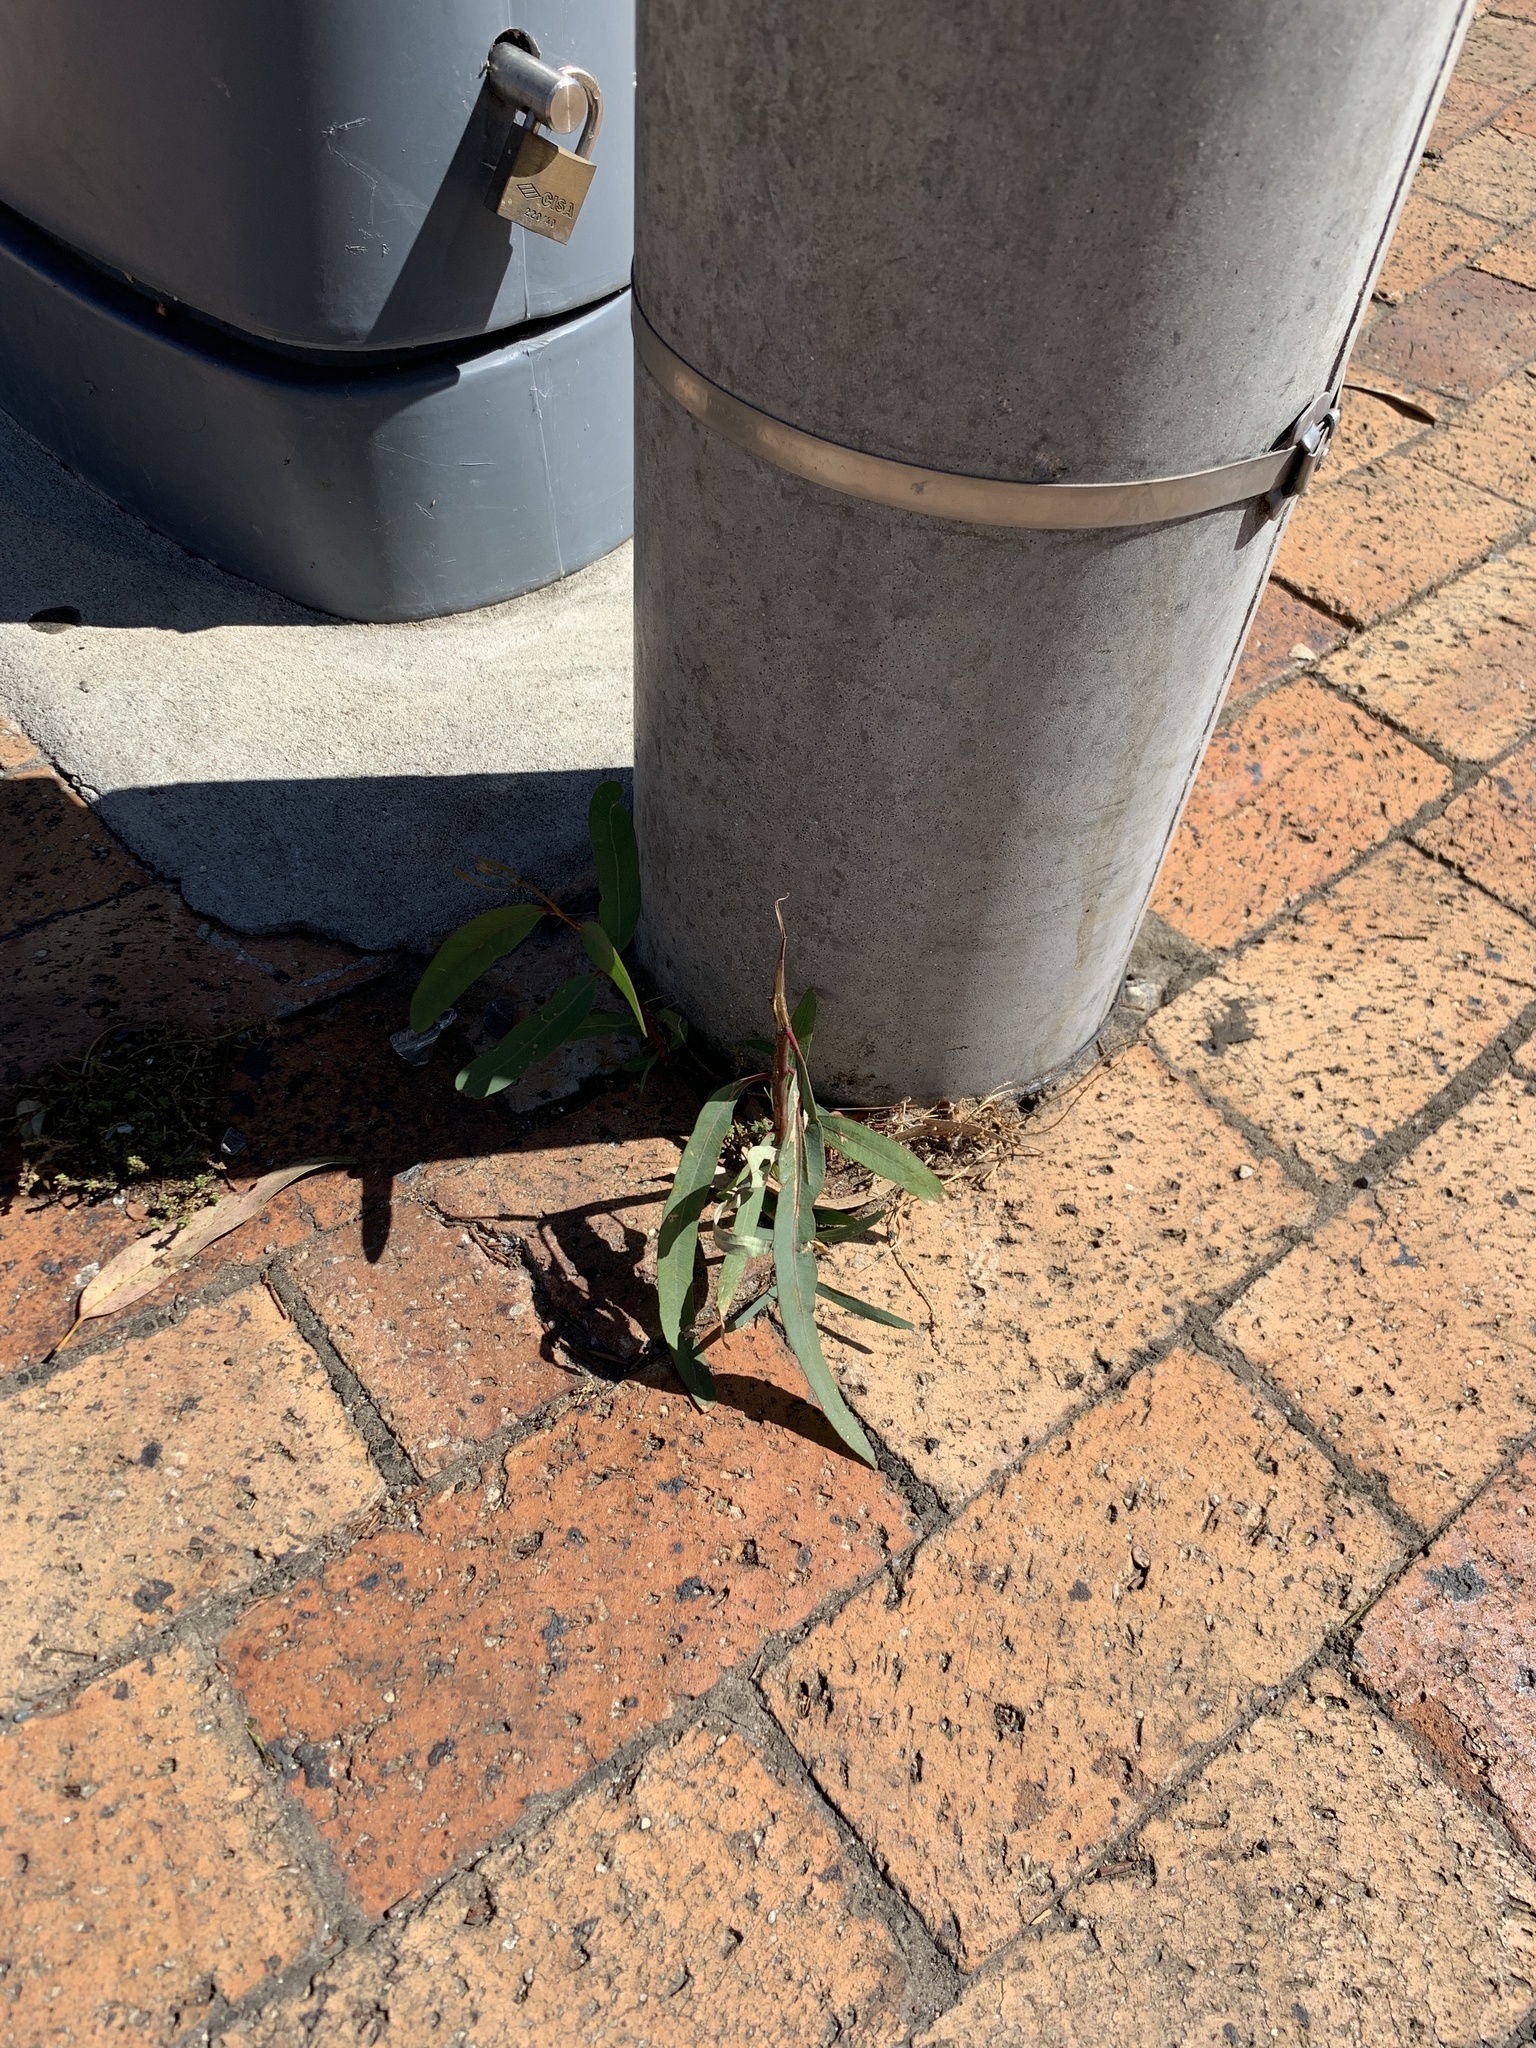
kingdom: Plantae
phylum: Tracheophyta
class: Magnoliopsida
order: Myrtales
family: Myrtaceae
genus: Eucalyptus
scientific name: Eucalyptus camaldulensis
